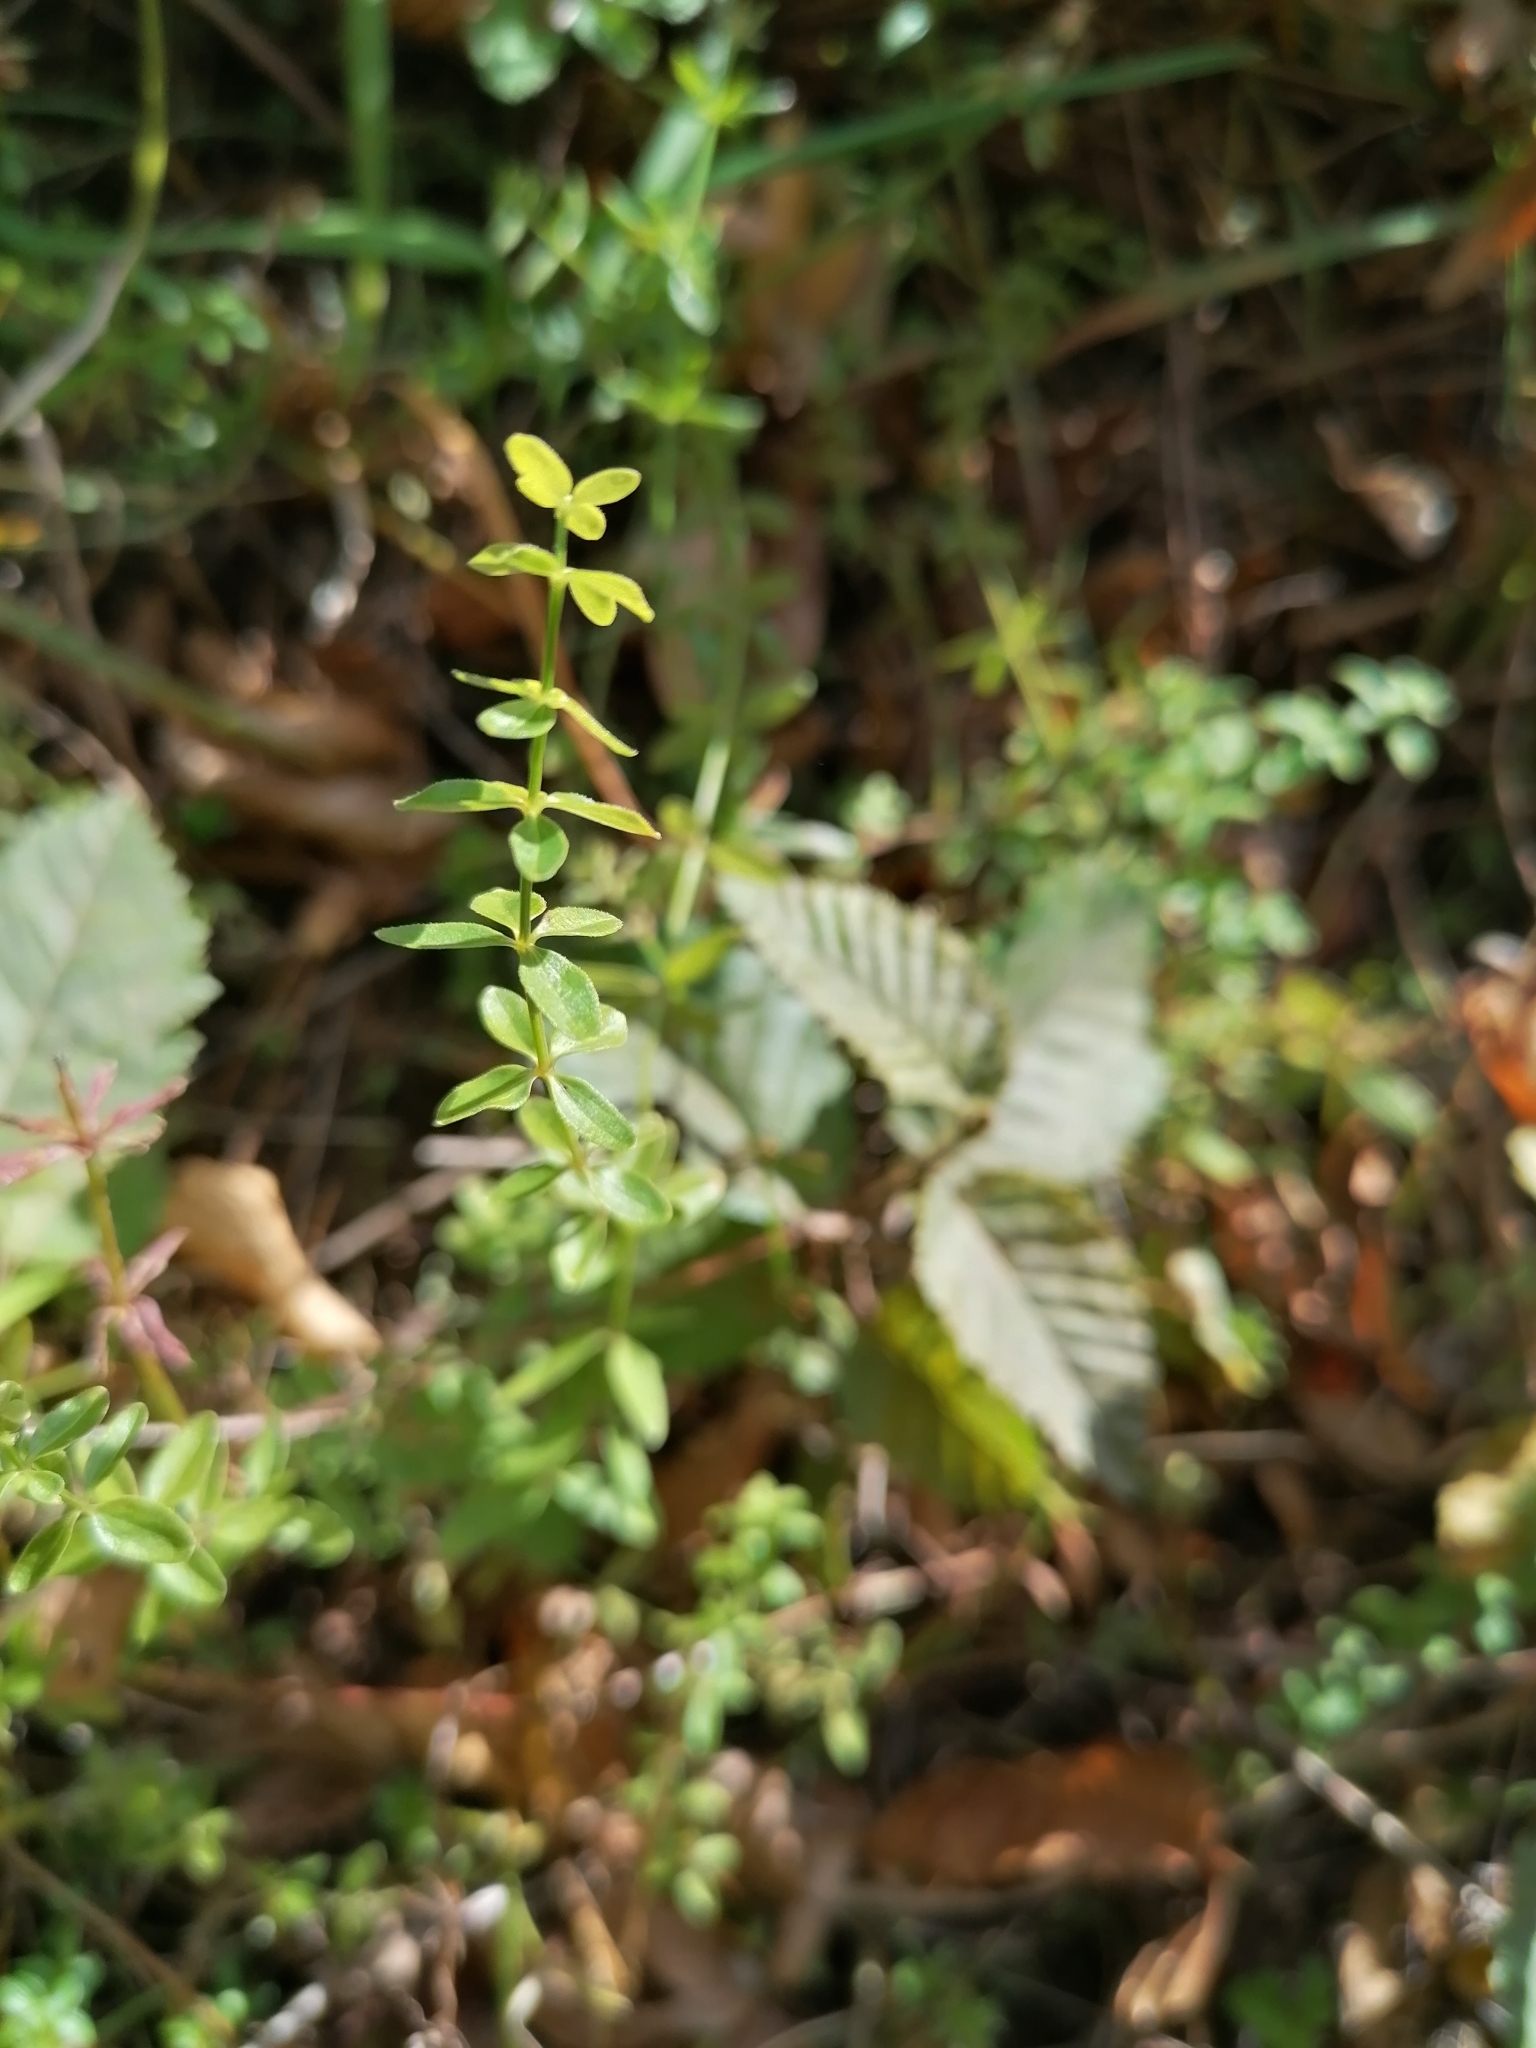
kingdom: Plantae
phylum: Tracheophyta
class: Magnoliopsida
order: Gentianales
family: Rubiaceae
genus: Cruciata
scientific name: Cruciata glabra
